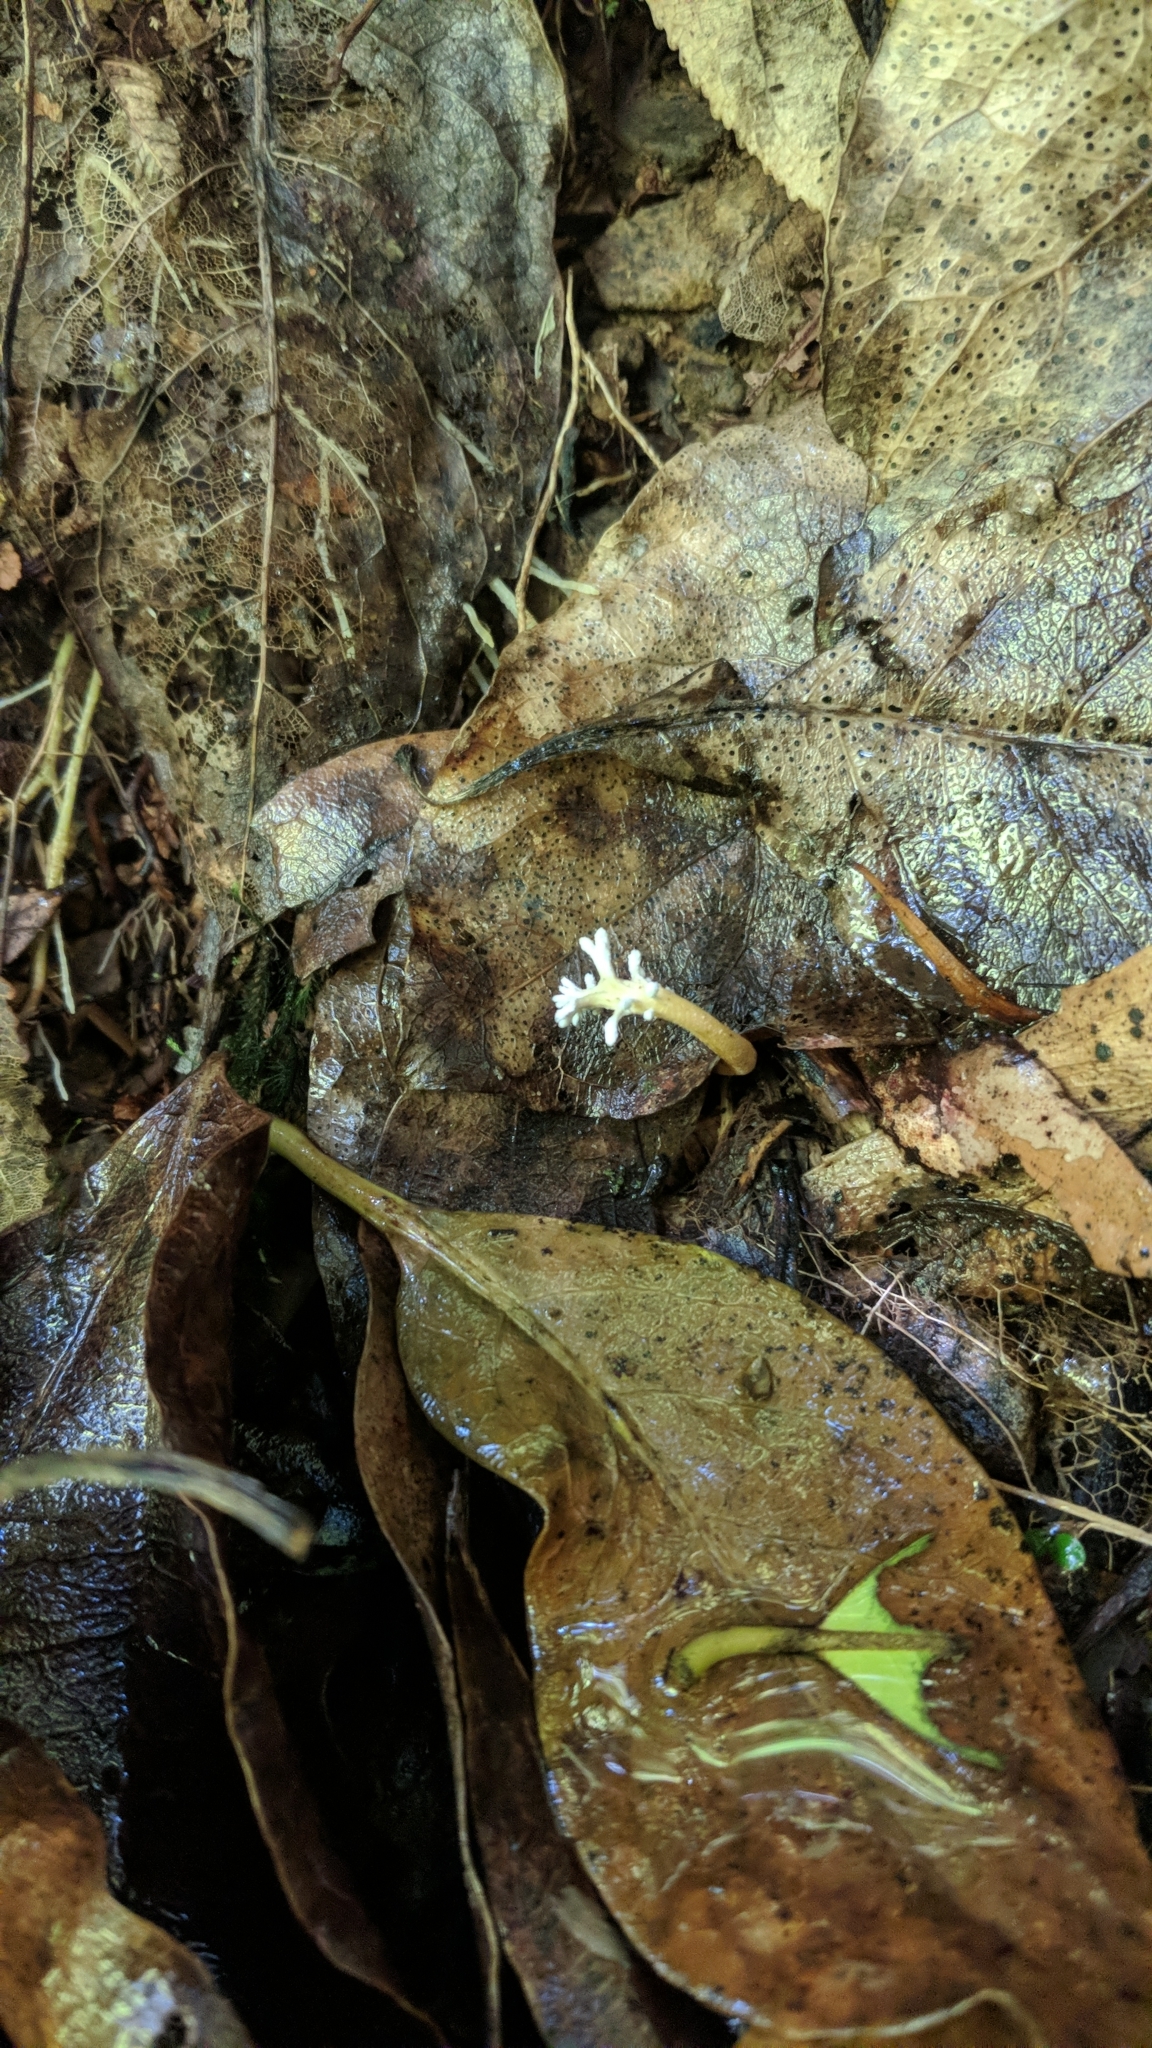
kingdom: Fungi
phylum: Ascomycota
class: Sordariomycetes
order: Hypocreales
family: Cordycipitaceae
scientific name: Cordycipitaceae
